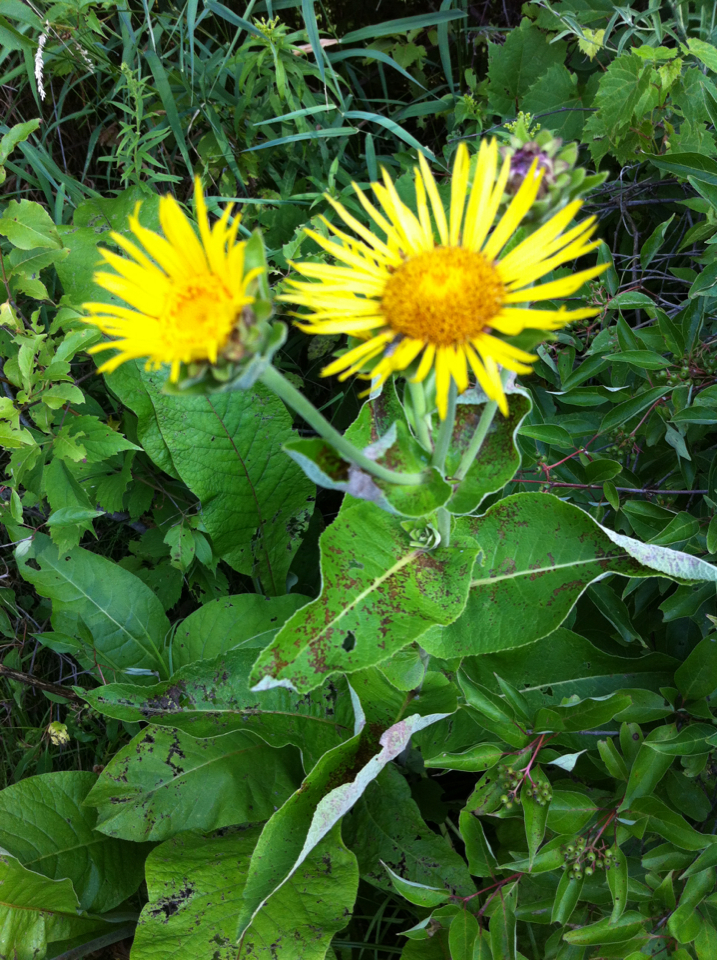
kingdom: Plantae
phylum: Tracheophyta
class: Magnoliopsida
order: Asterales
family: Asteraceae
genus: Inula
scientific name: Inula helenium
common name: Elecampane
